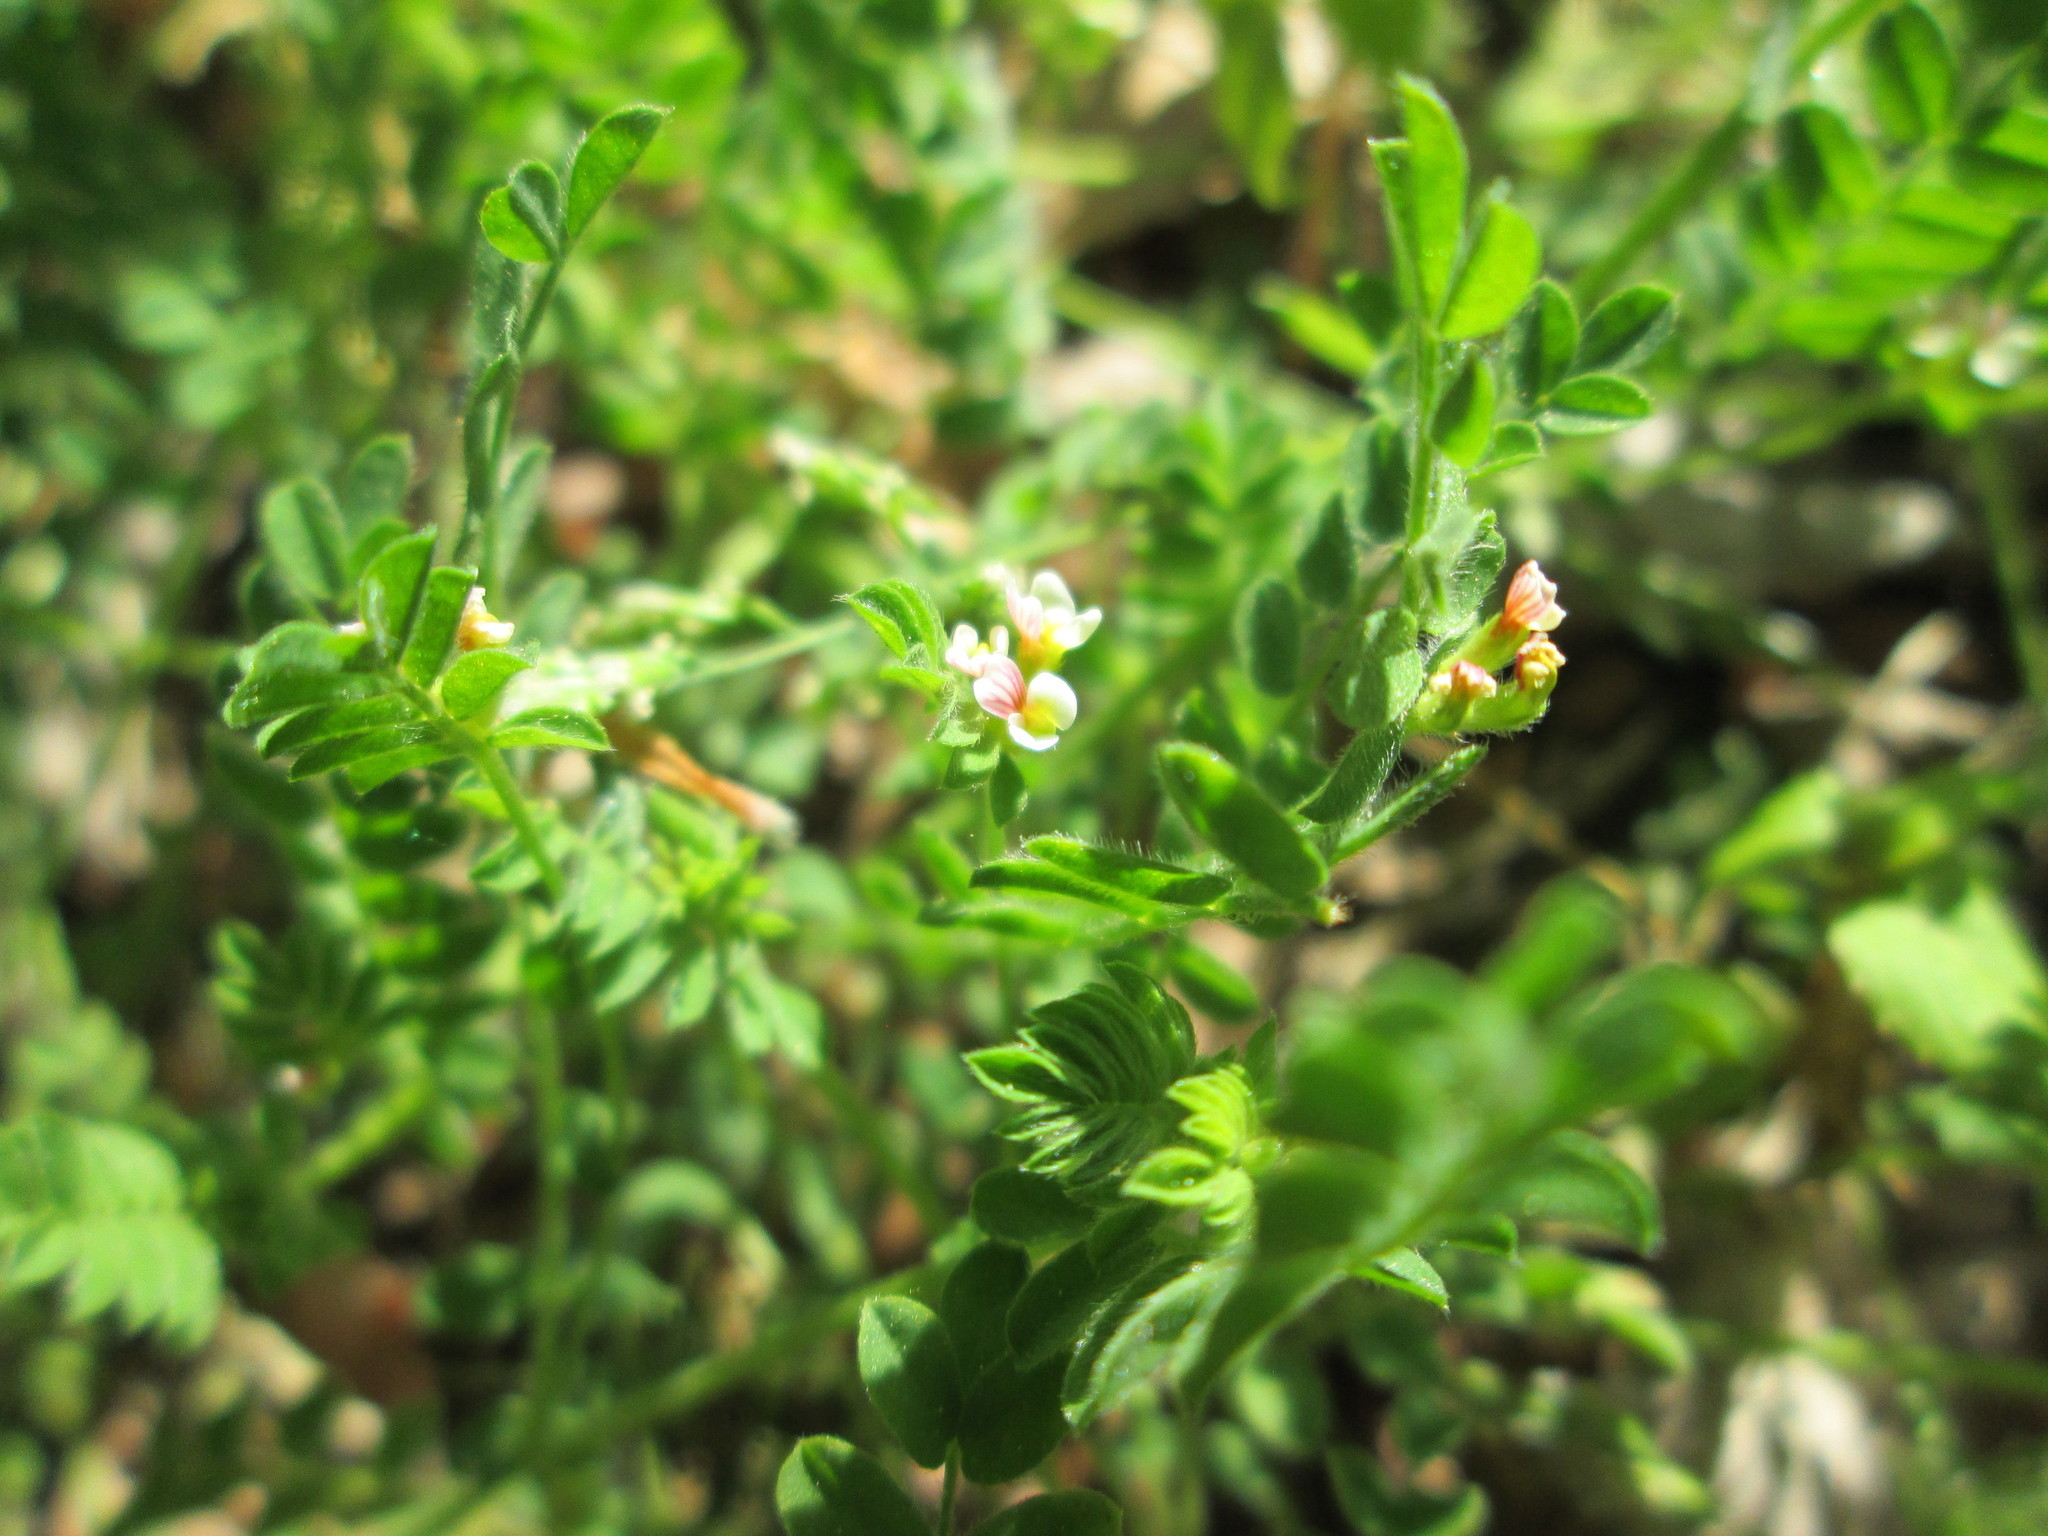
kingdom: Plantae
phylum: Tracheophyta
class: Magnoliopsida
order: Fabales
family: Fabaceae
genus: Ornithopus
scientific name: Ornithopus perpusillus
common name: Bird's-foot
